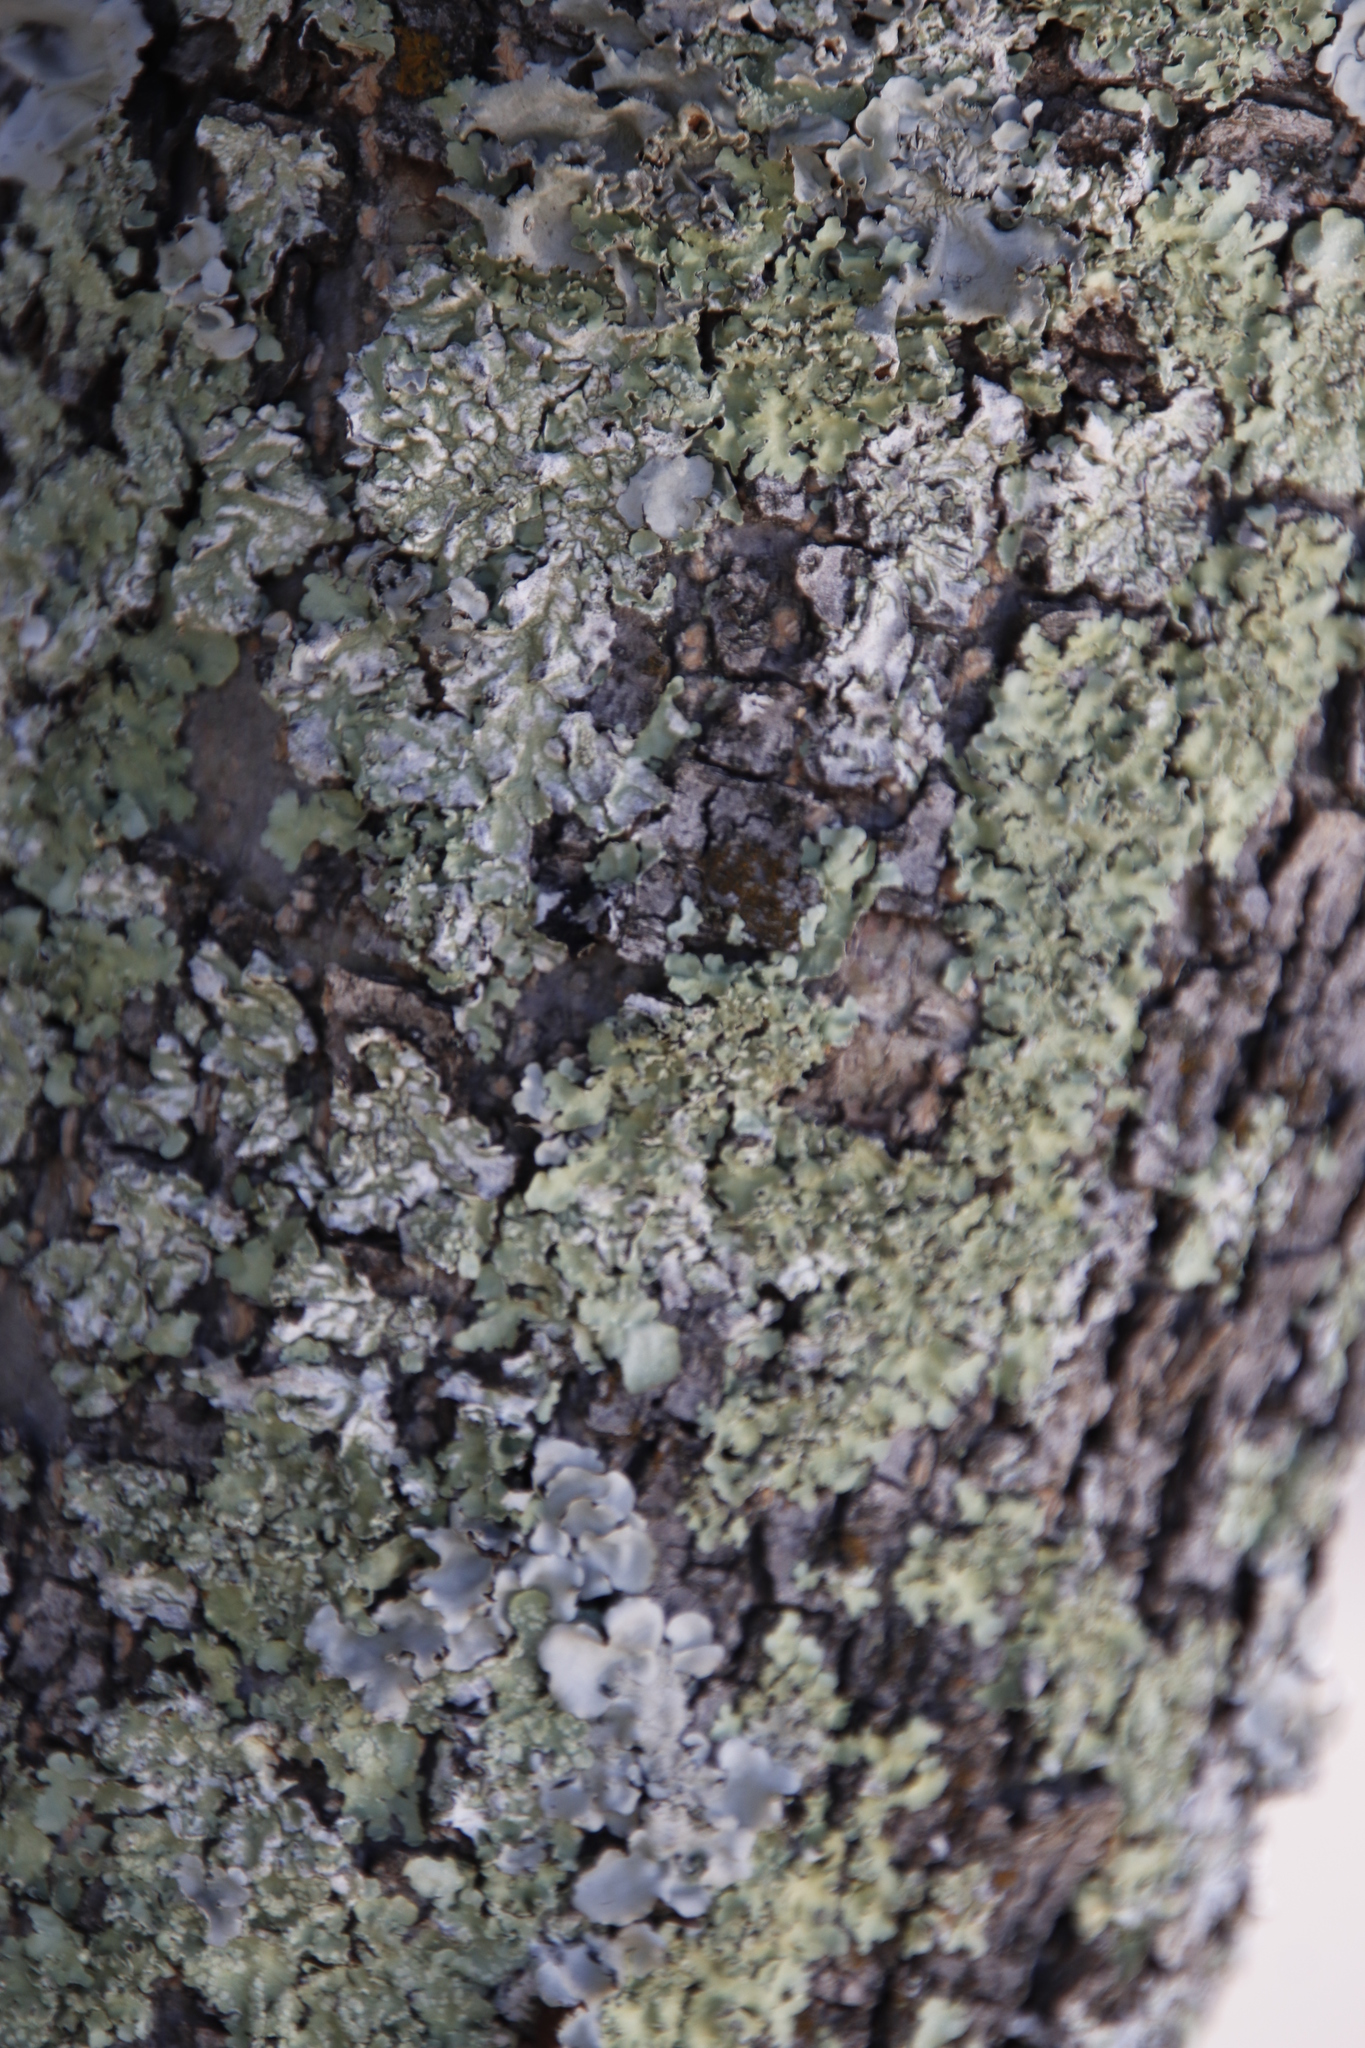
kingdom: Fungi
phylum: Ascomycota
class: Lecanoromycetes
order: Lecanorales
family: Parmeliaceae
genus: Flavopunctelia
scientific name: Flavopunctelia flaventior
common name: Speckled greenshield
